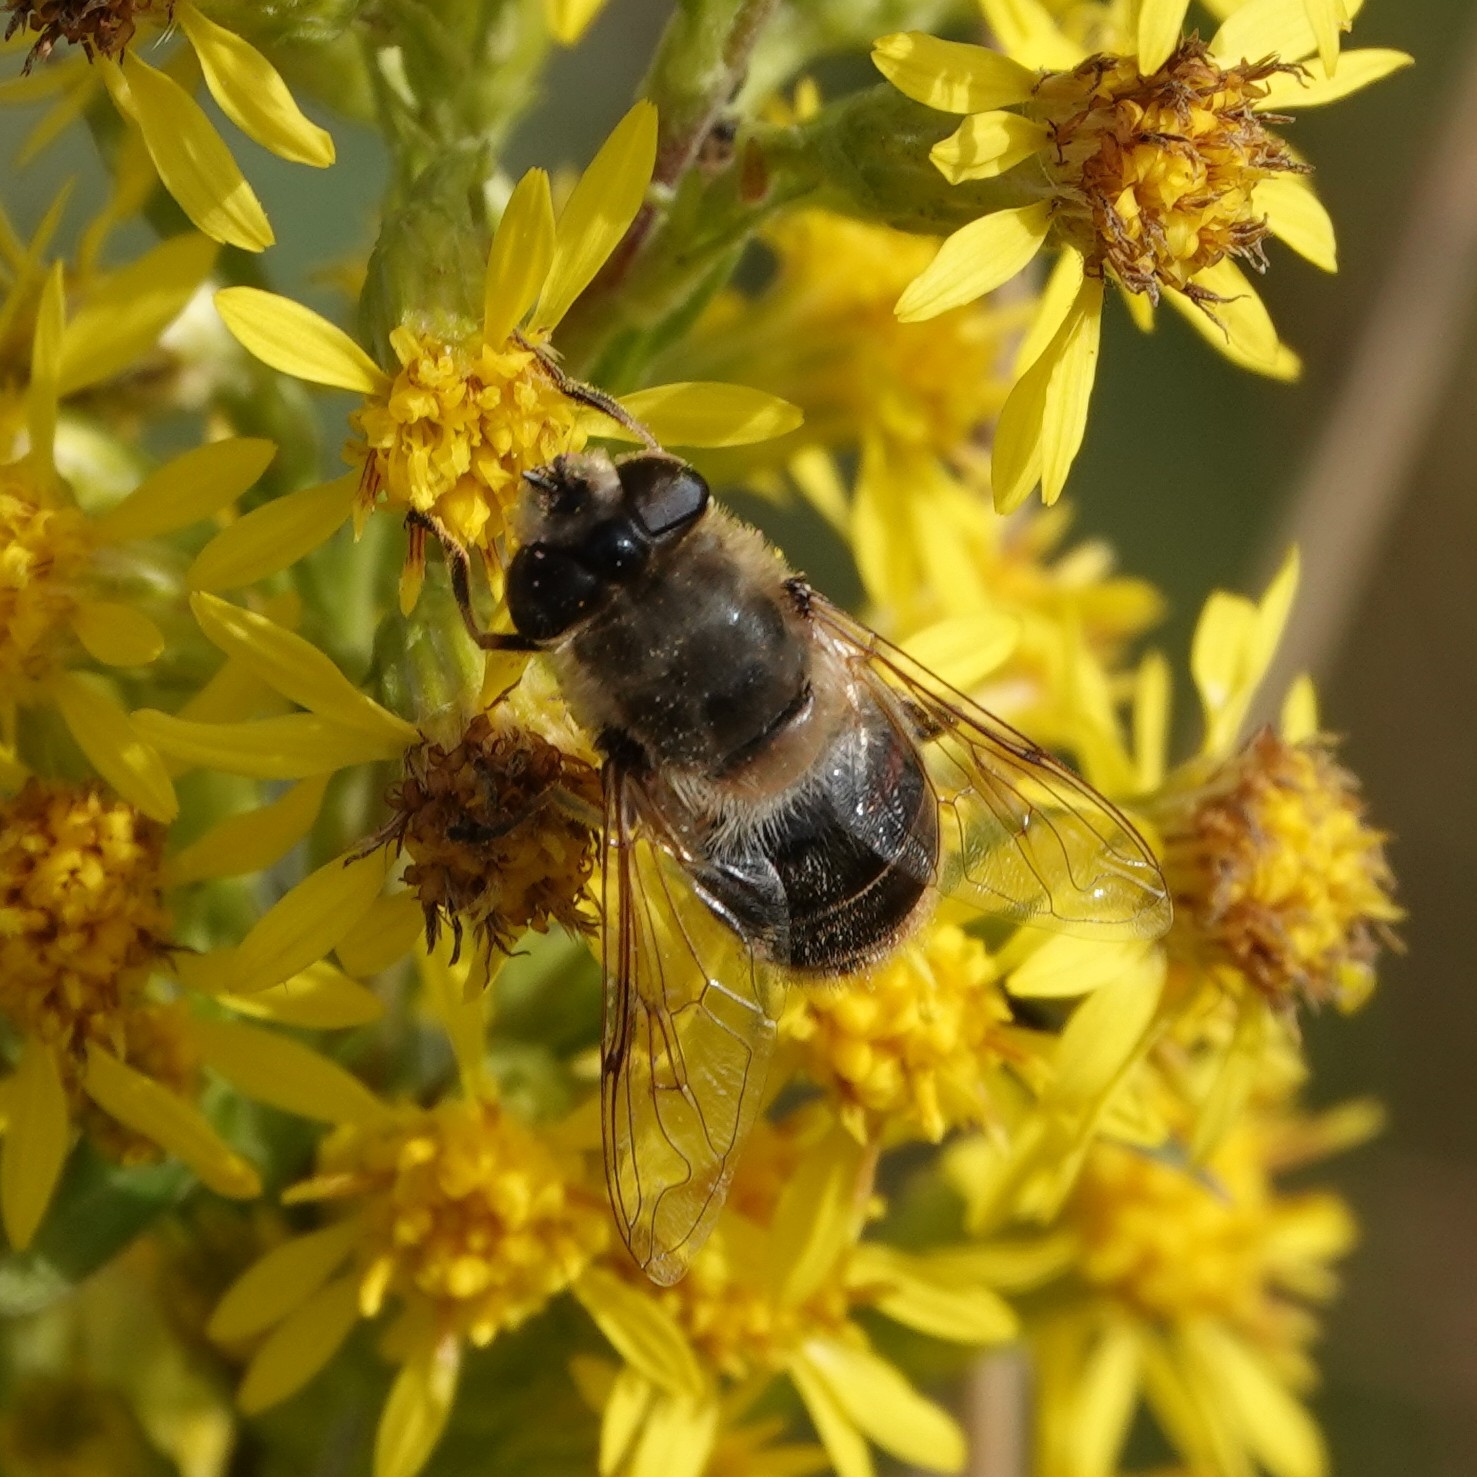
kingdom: Animalia
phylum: Arthropoda
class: Insecta
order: Diptera
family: Syrphidae
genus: Eristalis
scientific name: Eristalis tenax
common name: Drone fly
